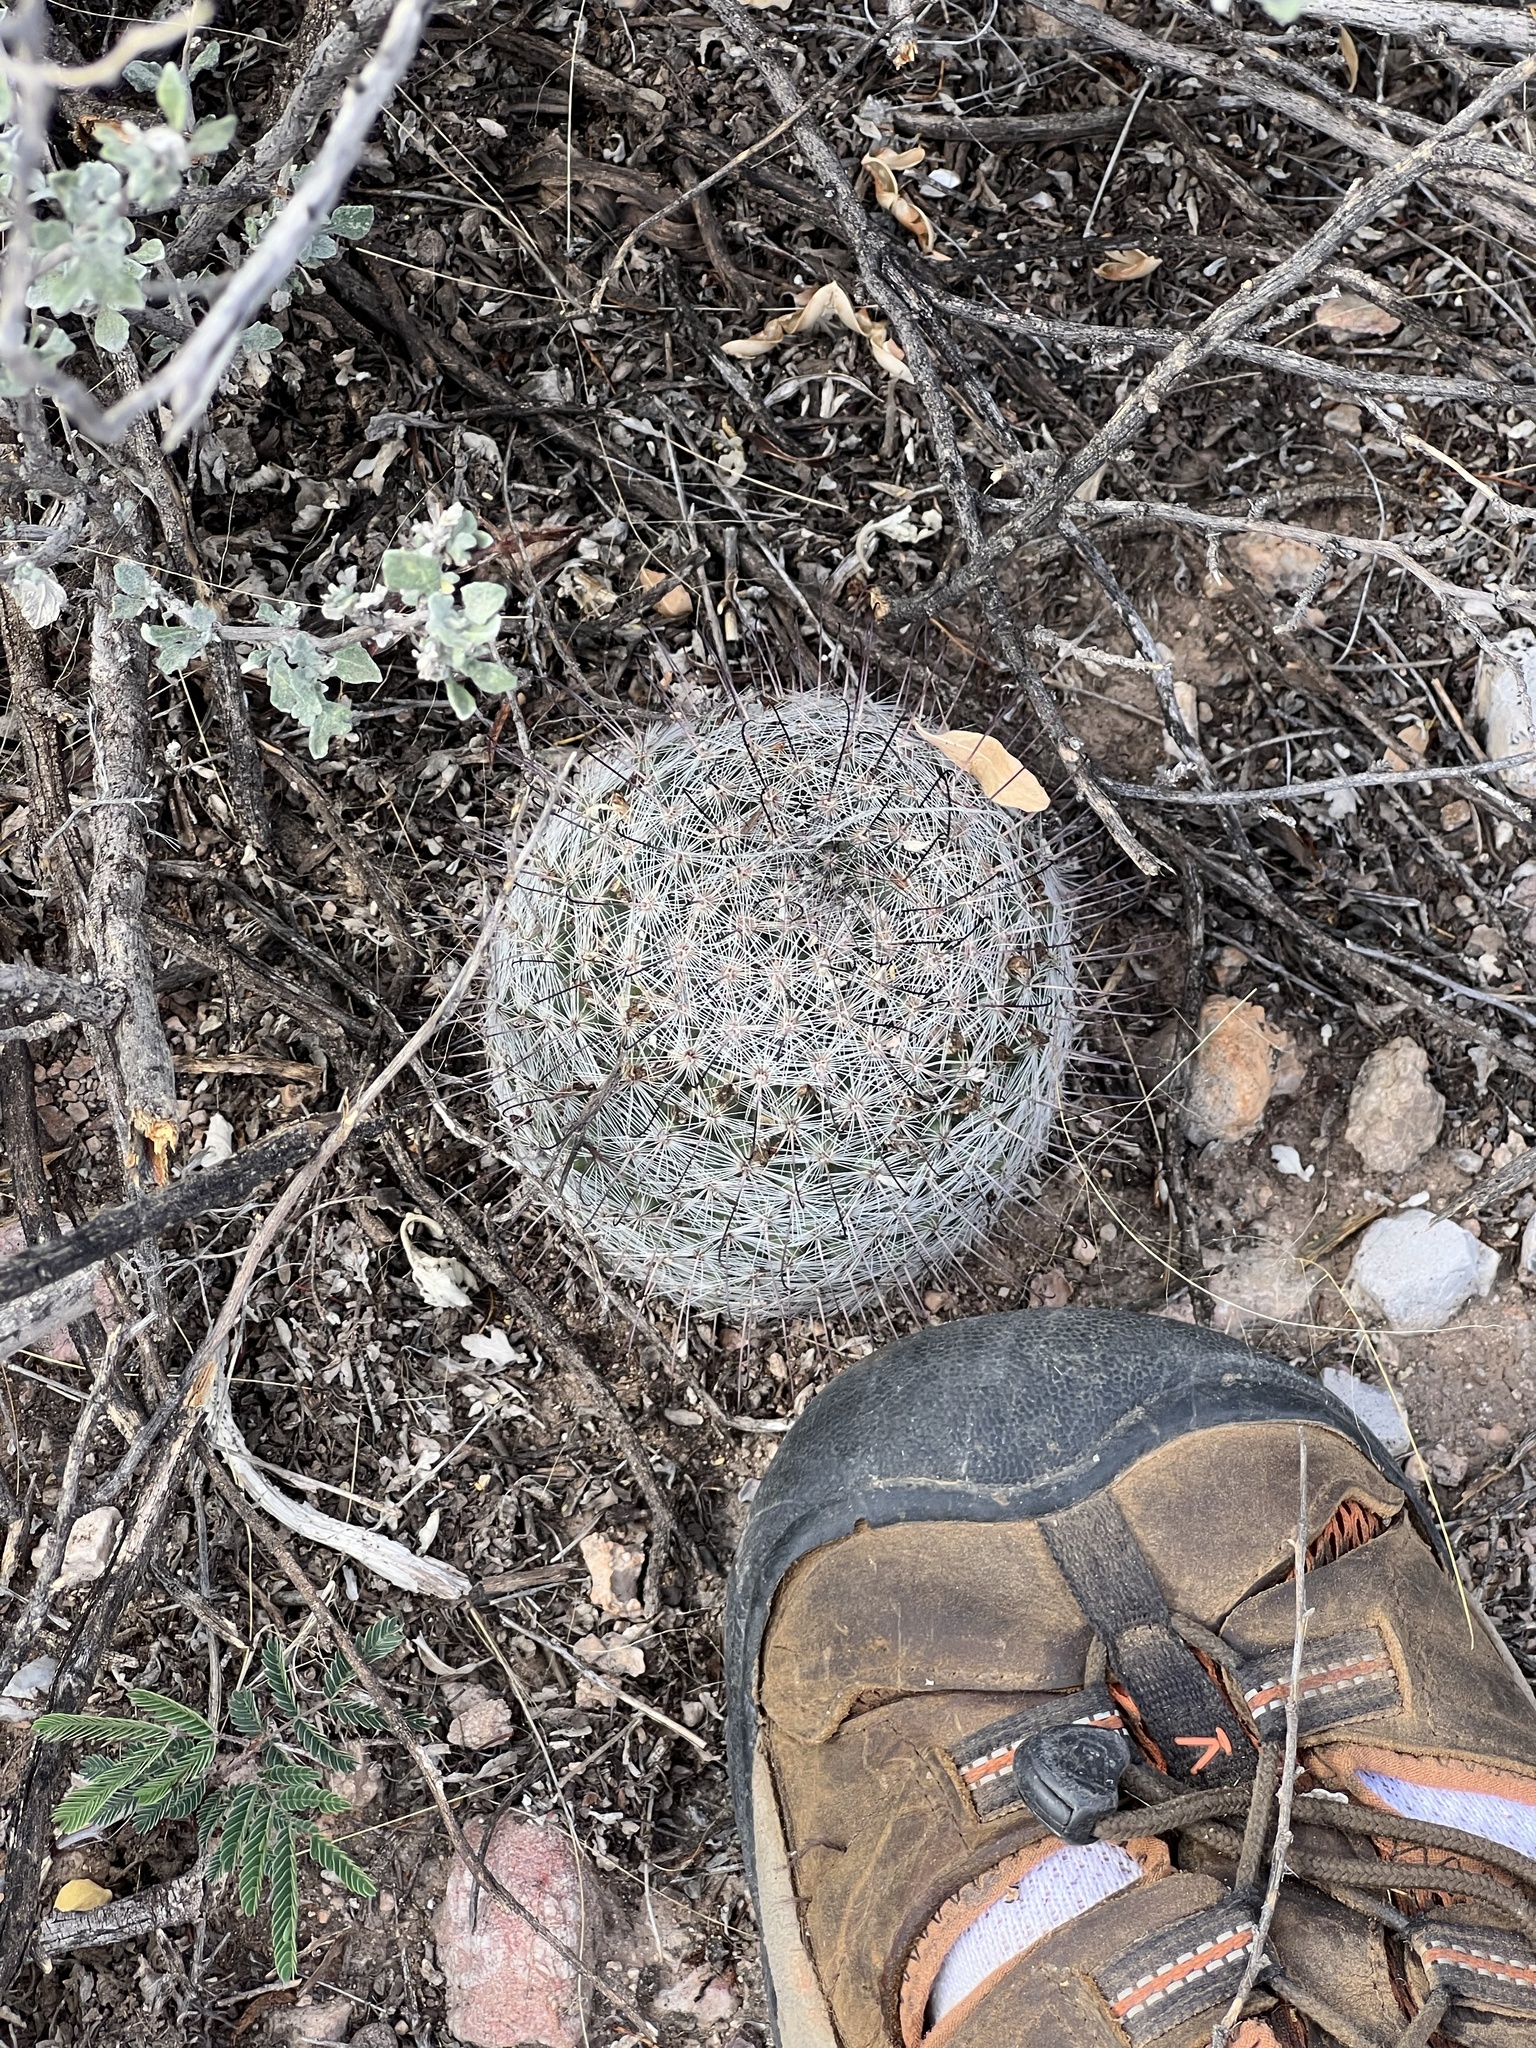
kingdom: Plantae
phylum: Tracheophyta
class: Magnoliopsida
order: Caryophyllales
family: Cactaceae
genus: Cochemiea
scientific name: Cochemiea grahamii
